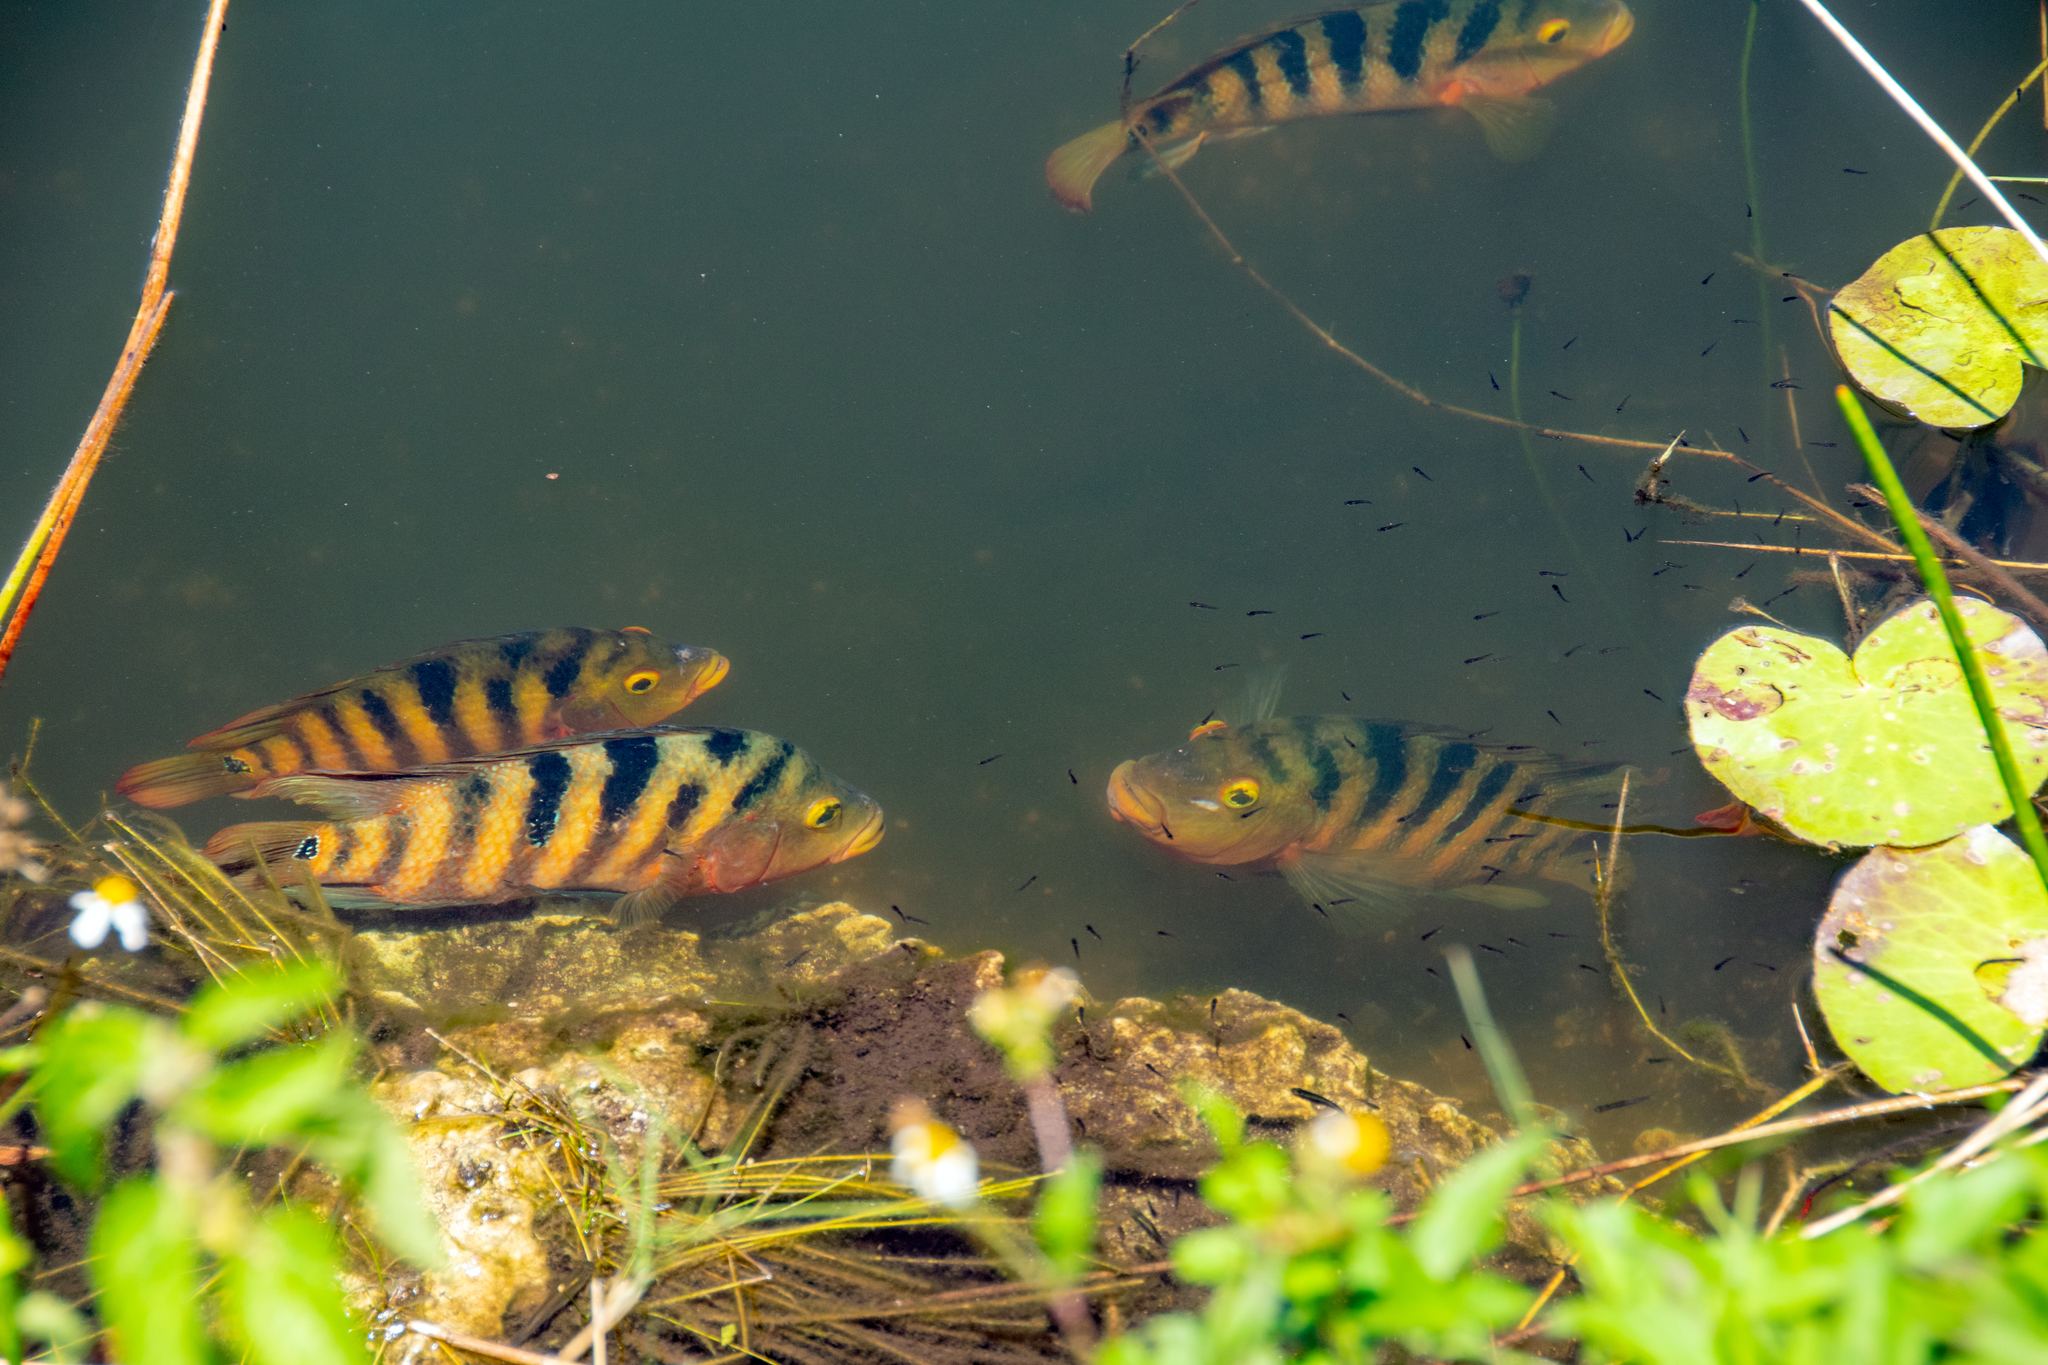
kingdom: Animalia
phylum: Chordata
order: Perciformes
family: Cichlidae
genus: Mayaheros
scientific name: Mayaheros urophthalmus
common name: Mayan cichlid
